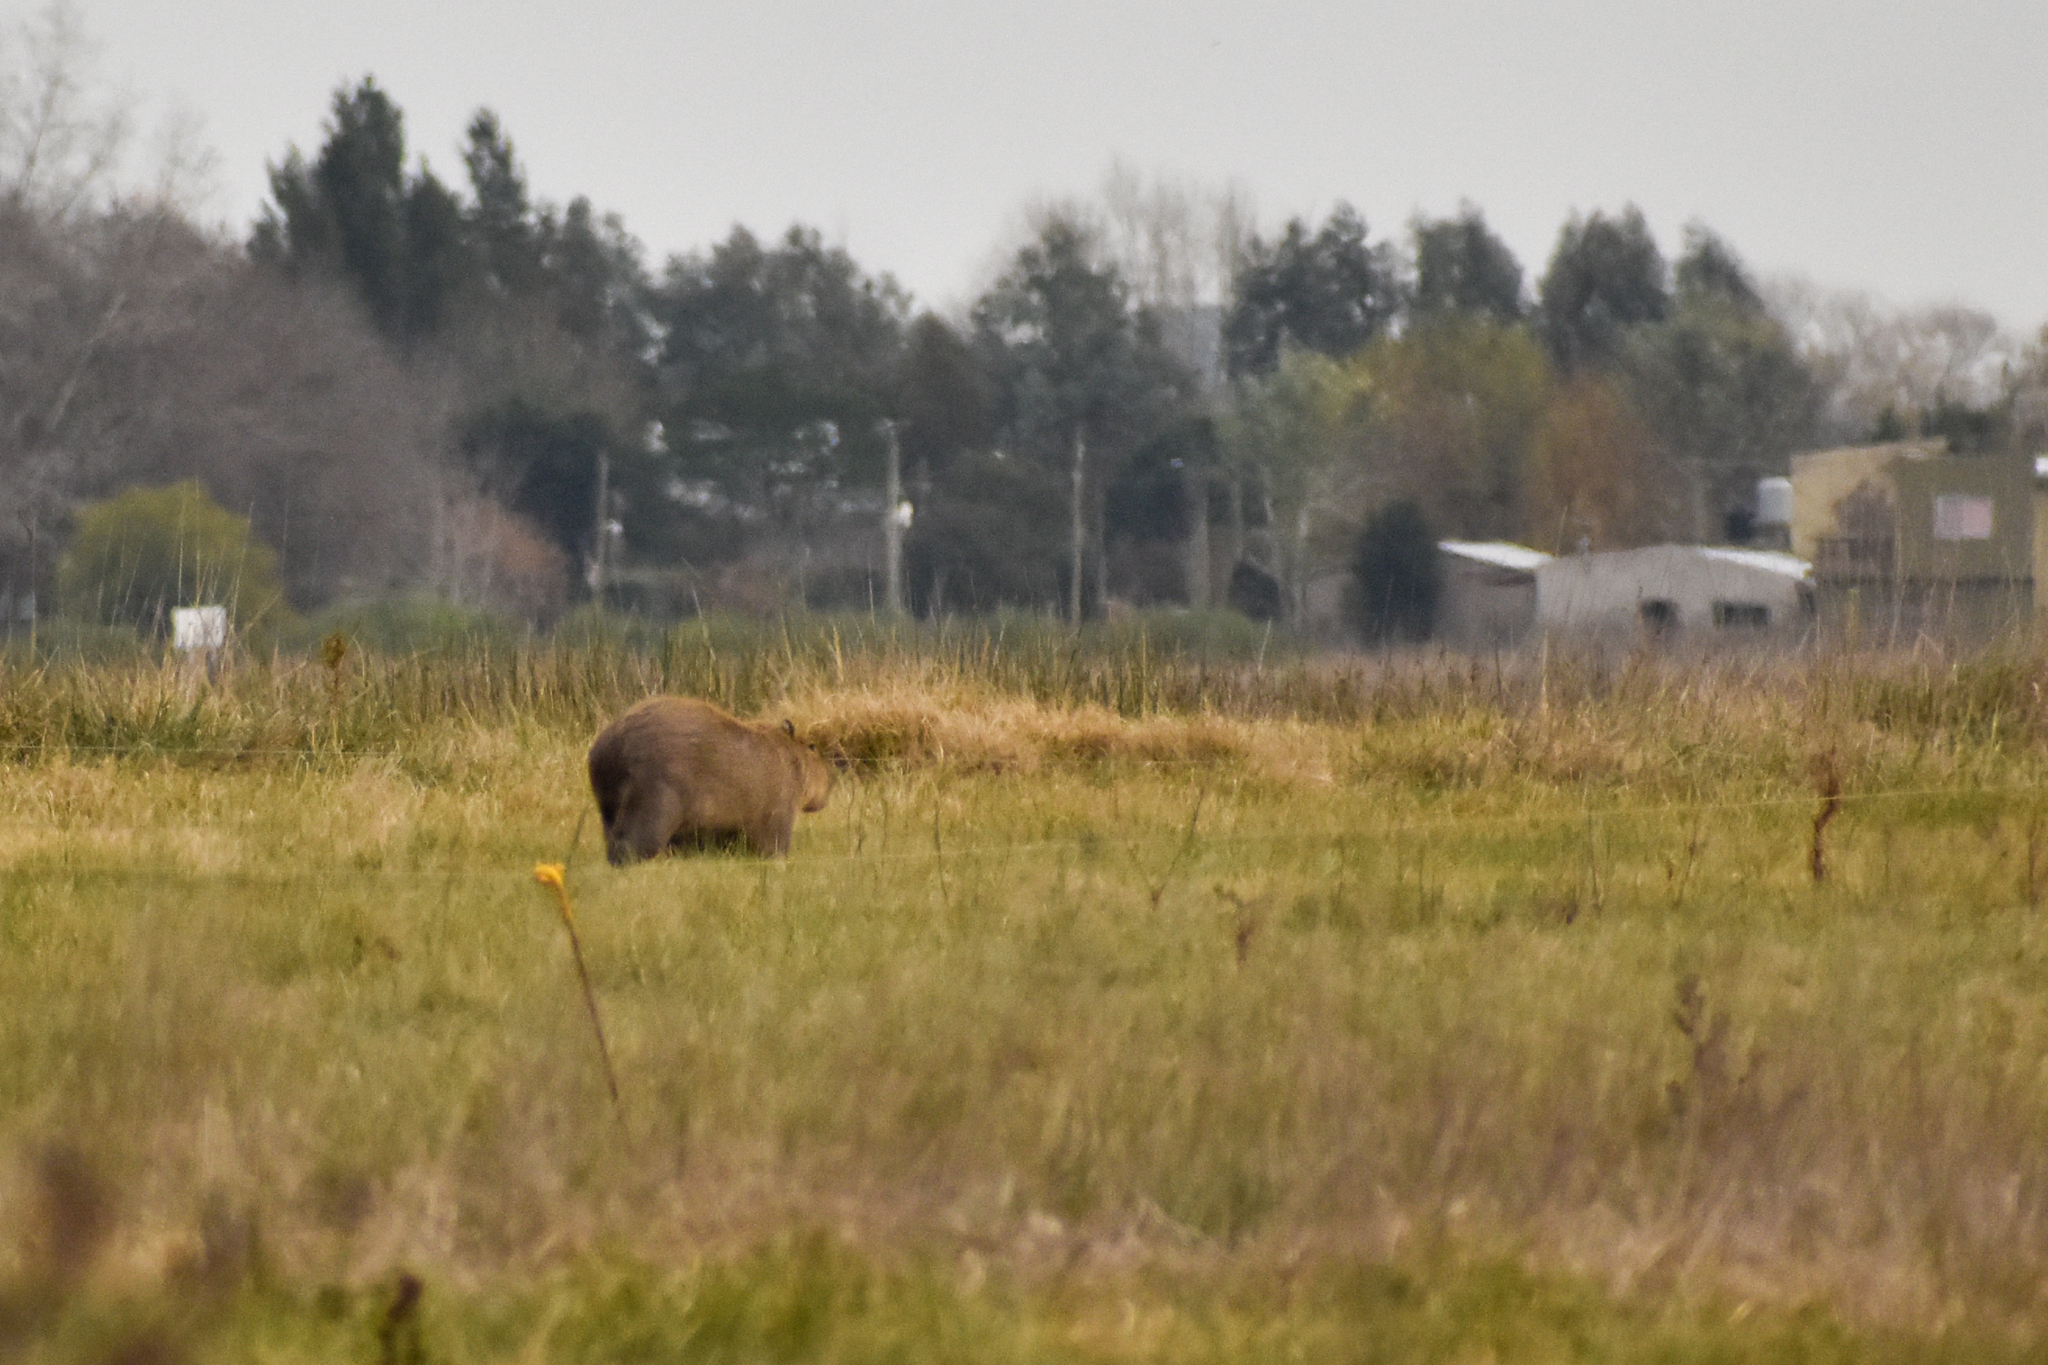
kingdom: Animalia
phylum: Chordata
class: Mammalia
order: Rodentia
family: Caviidae
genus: Hydrochoerus
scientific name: Hydrochoerus hydrochaeris
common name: Capybara
